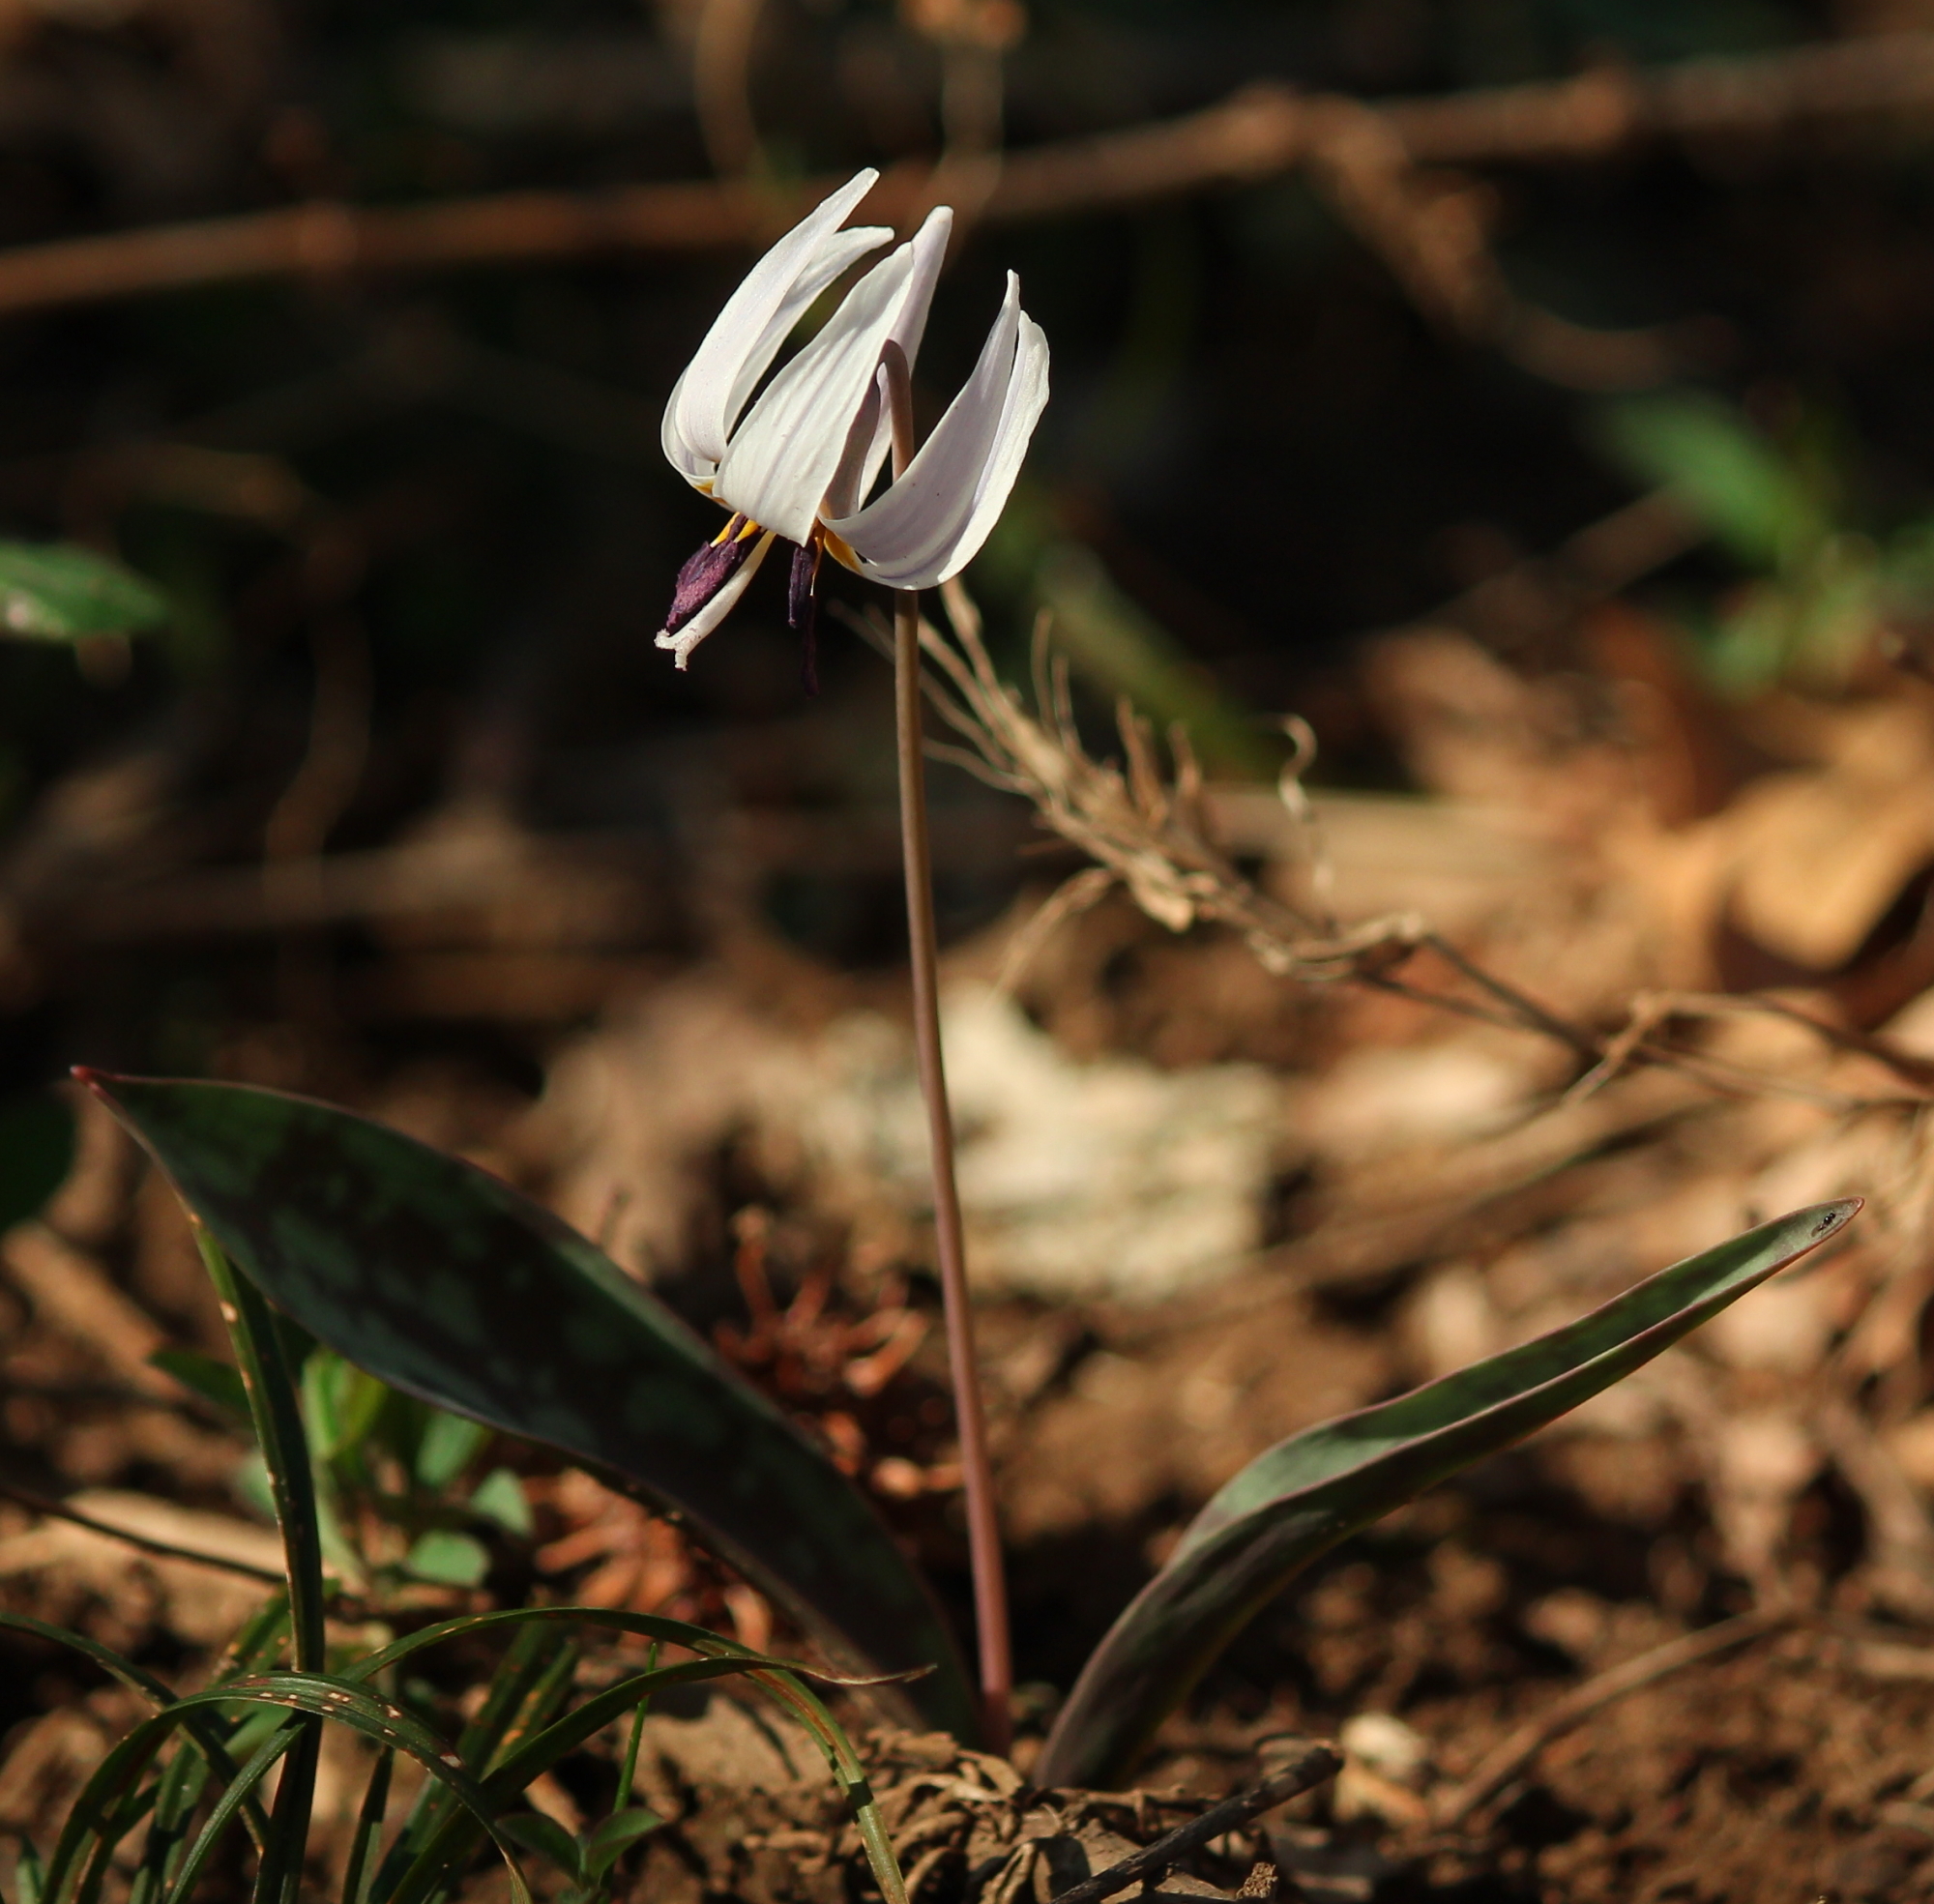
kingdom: Plantae
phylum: Tracheophyta
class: Liliopsida
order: Liliales
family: Liliaceae
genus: Erythronium
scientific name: Erythronium albidum
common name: White trout-lily
